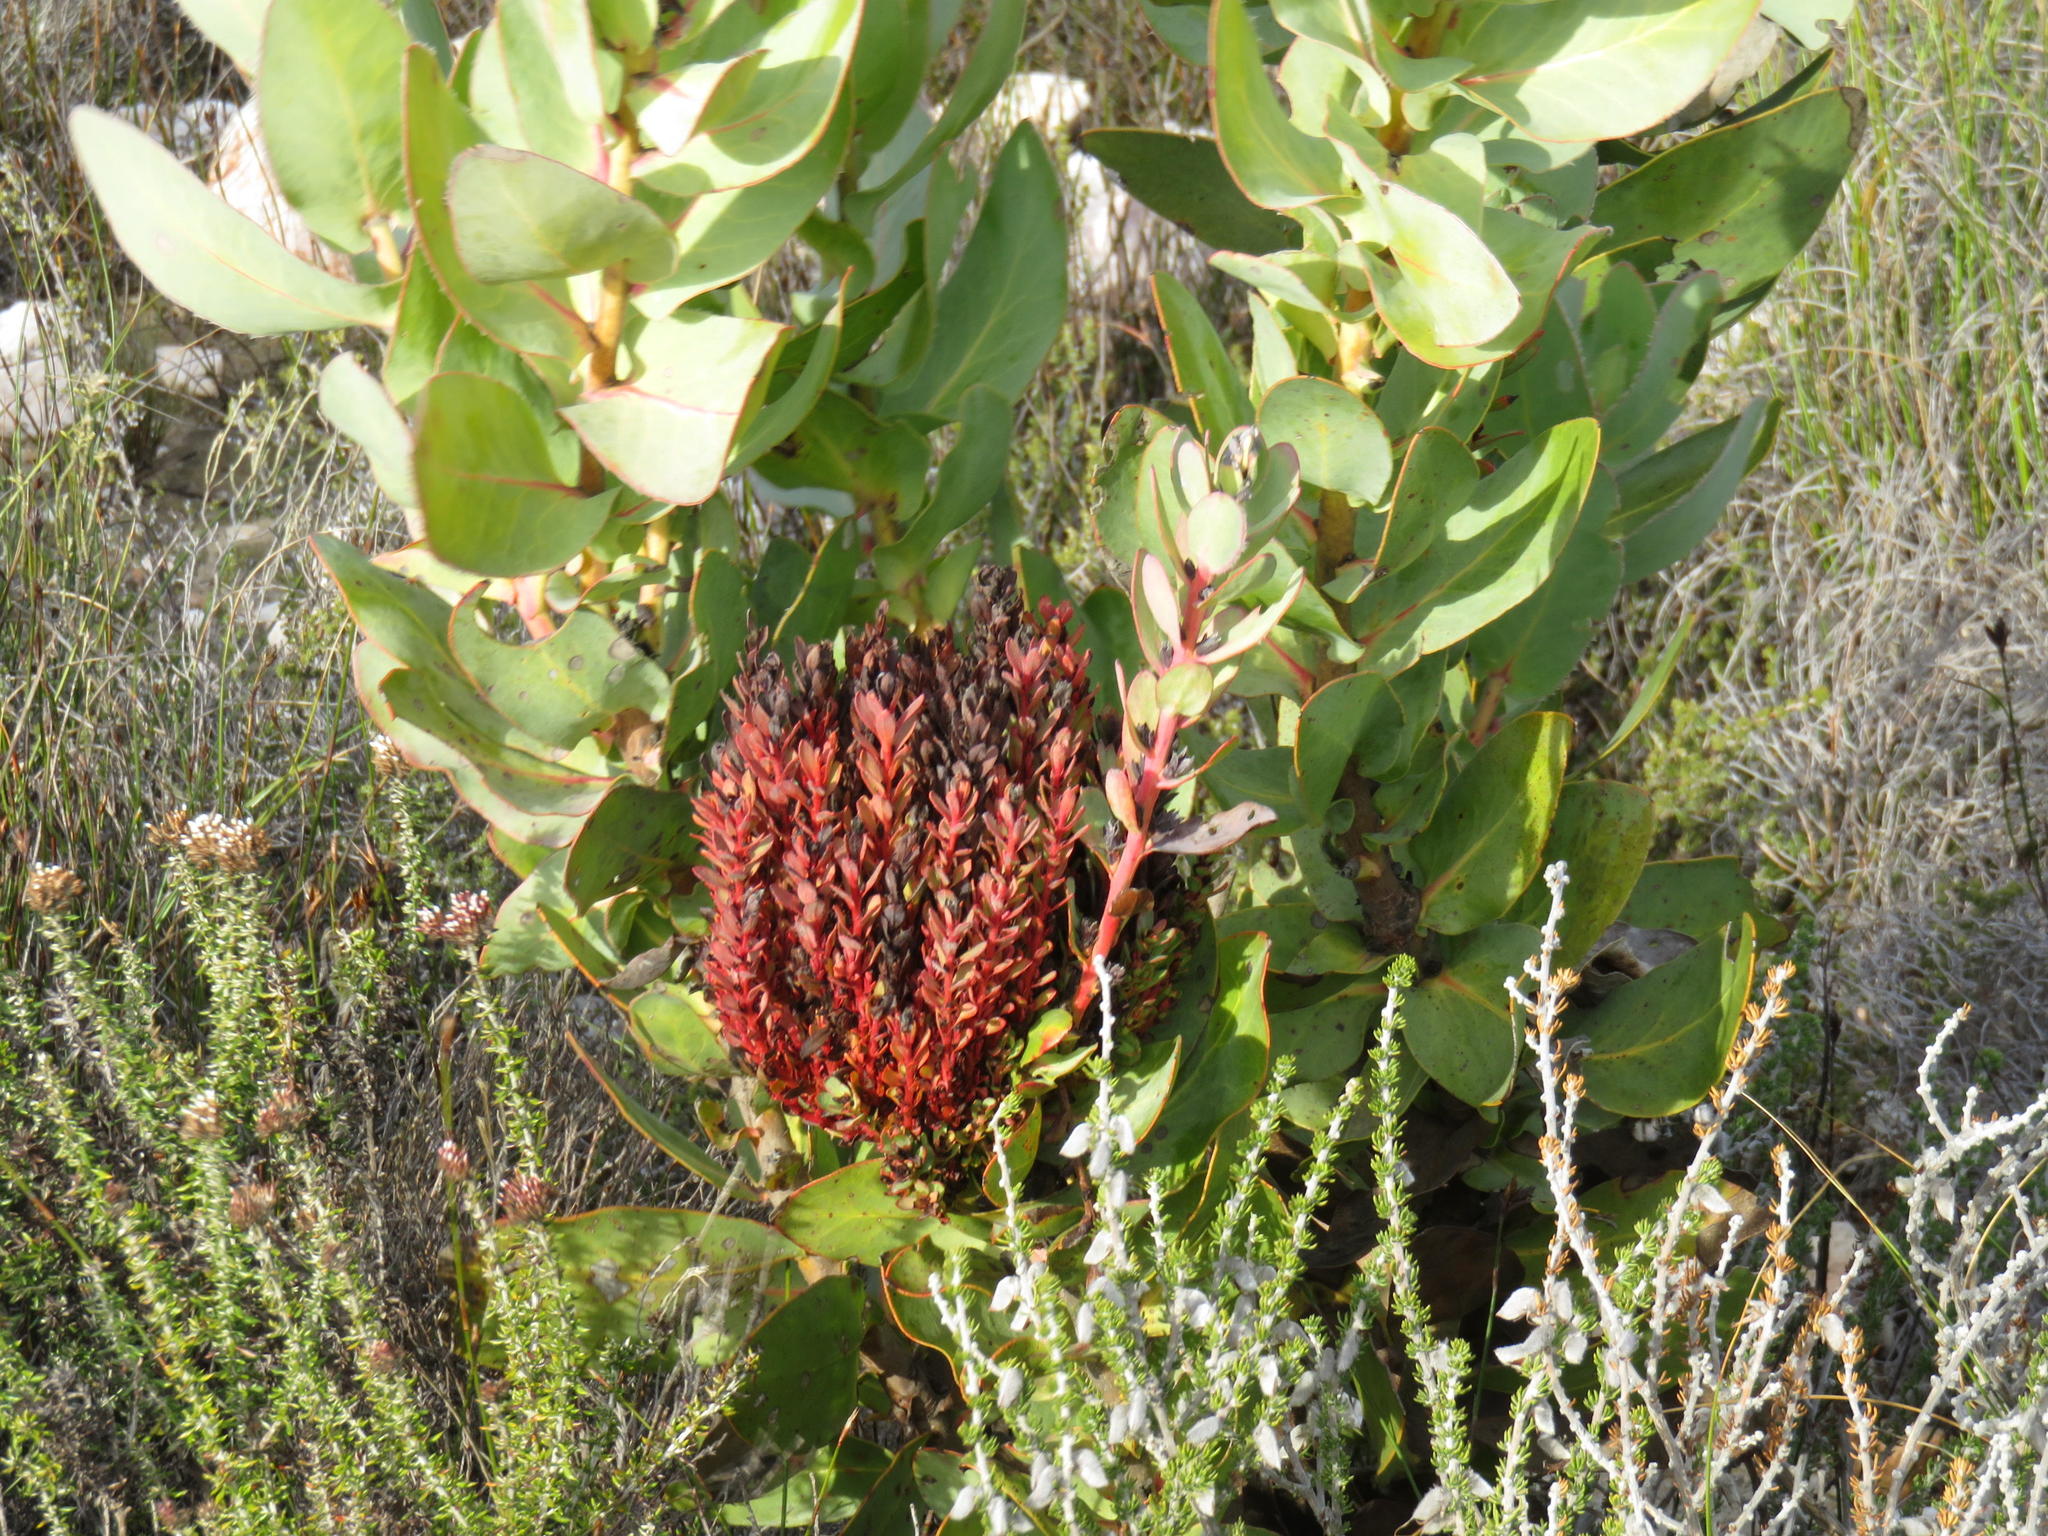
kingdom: Bacteria
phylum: Firmicutes
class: Bacilli
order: Acholeplasmatales
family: Acholeplasmataceae
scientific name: Acholeplasmataceae
